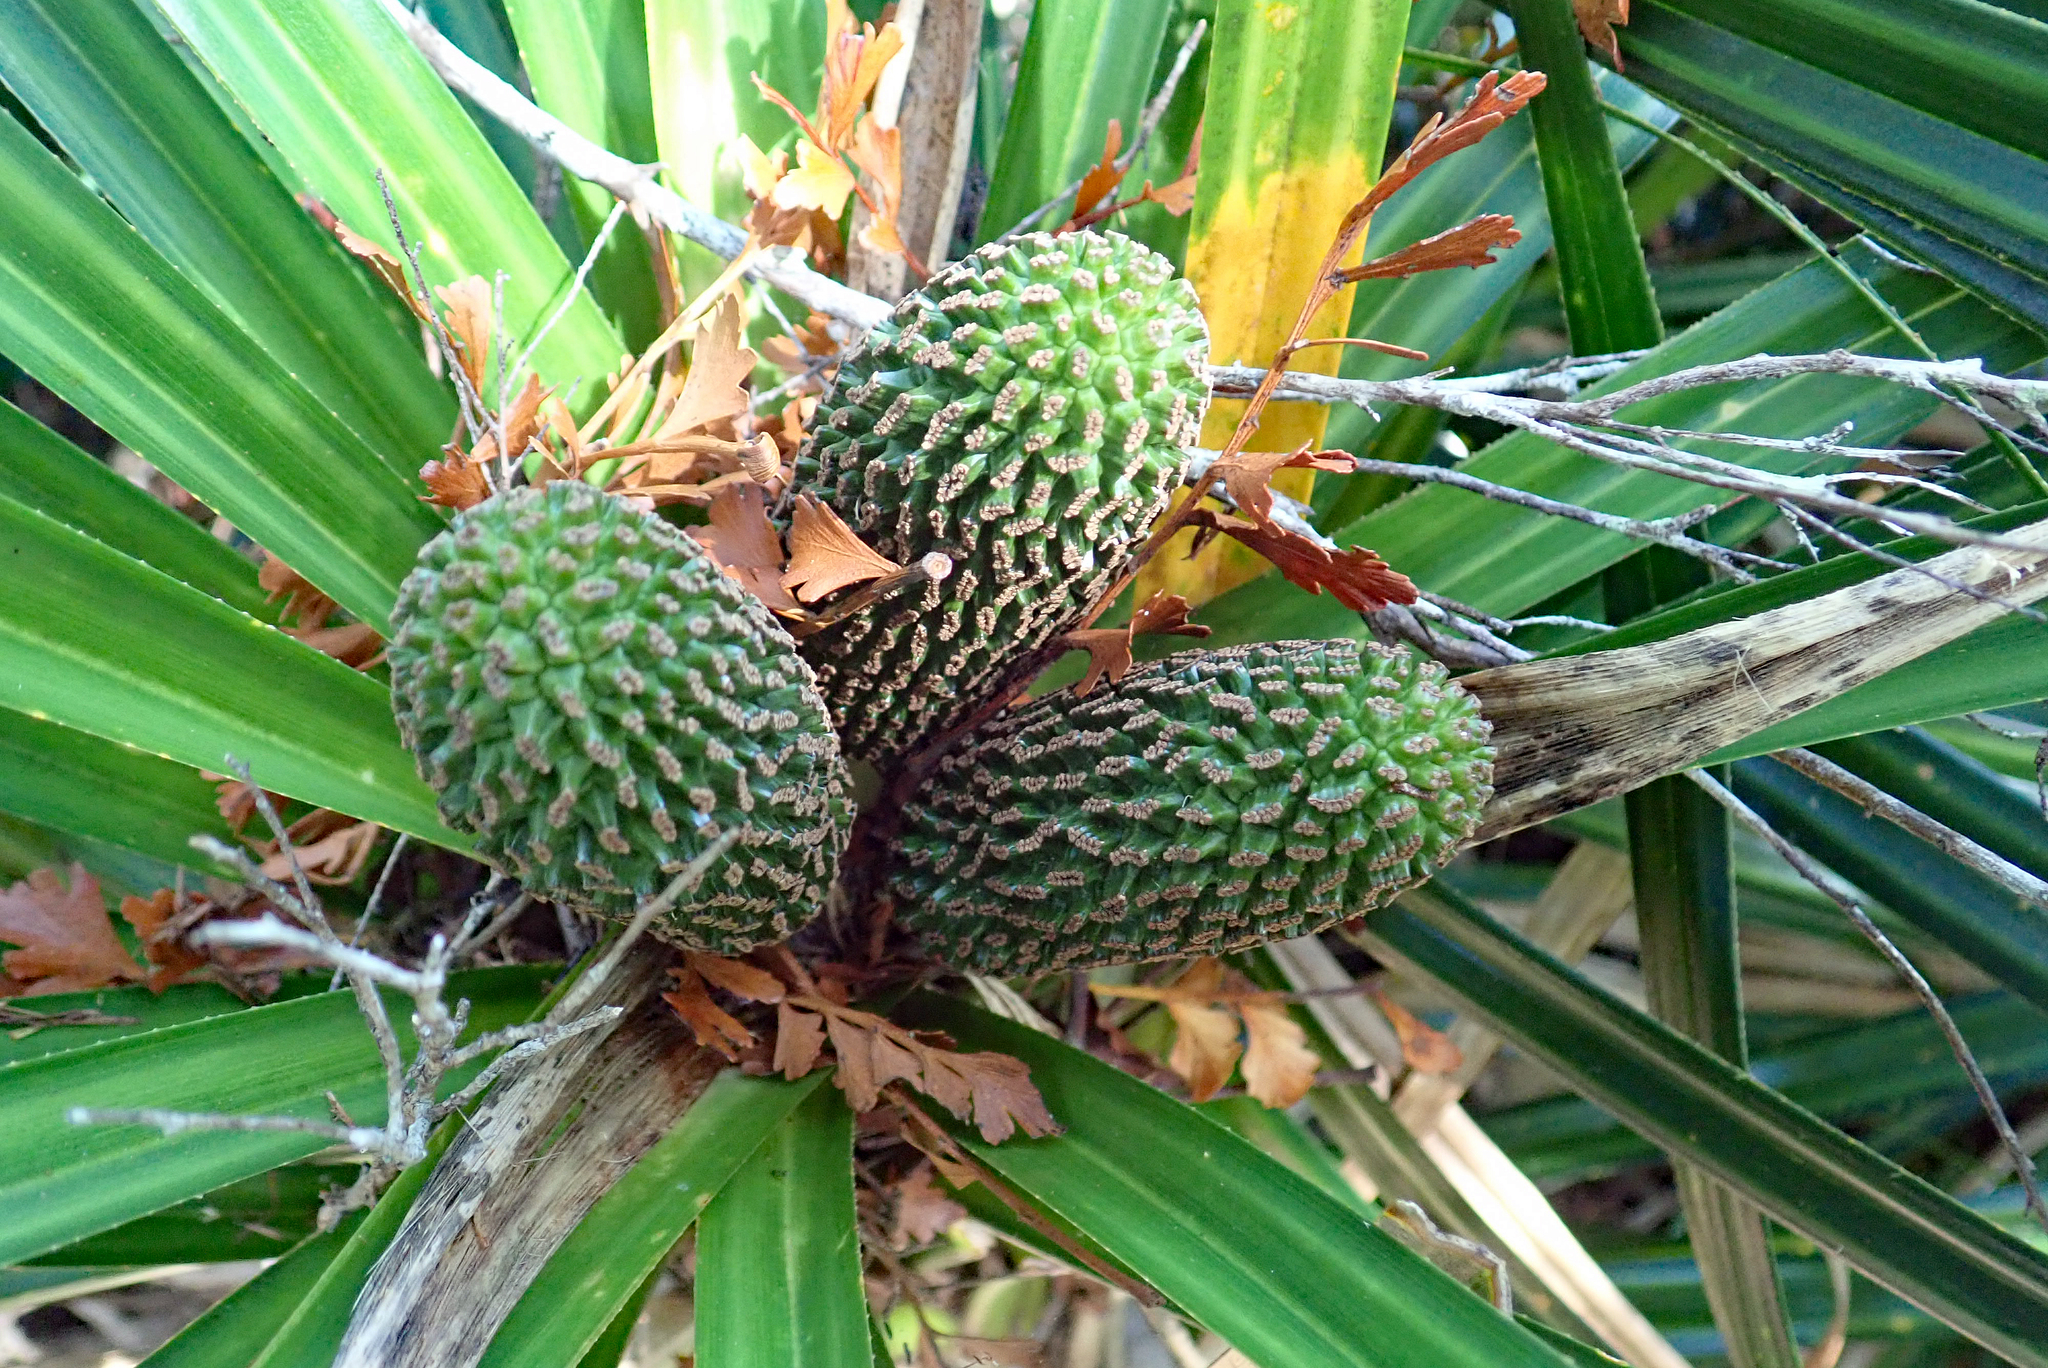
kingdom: Plantae
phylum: Tracheophyta
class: Liliopsida
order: Pandanales
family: Pandanaceae
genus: Freycinetia
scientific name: Freycinetia banksii
